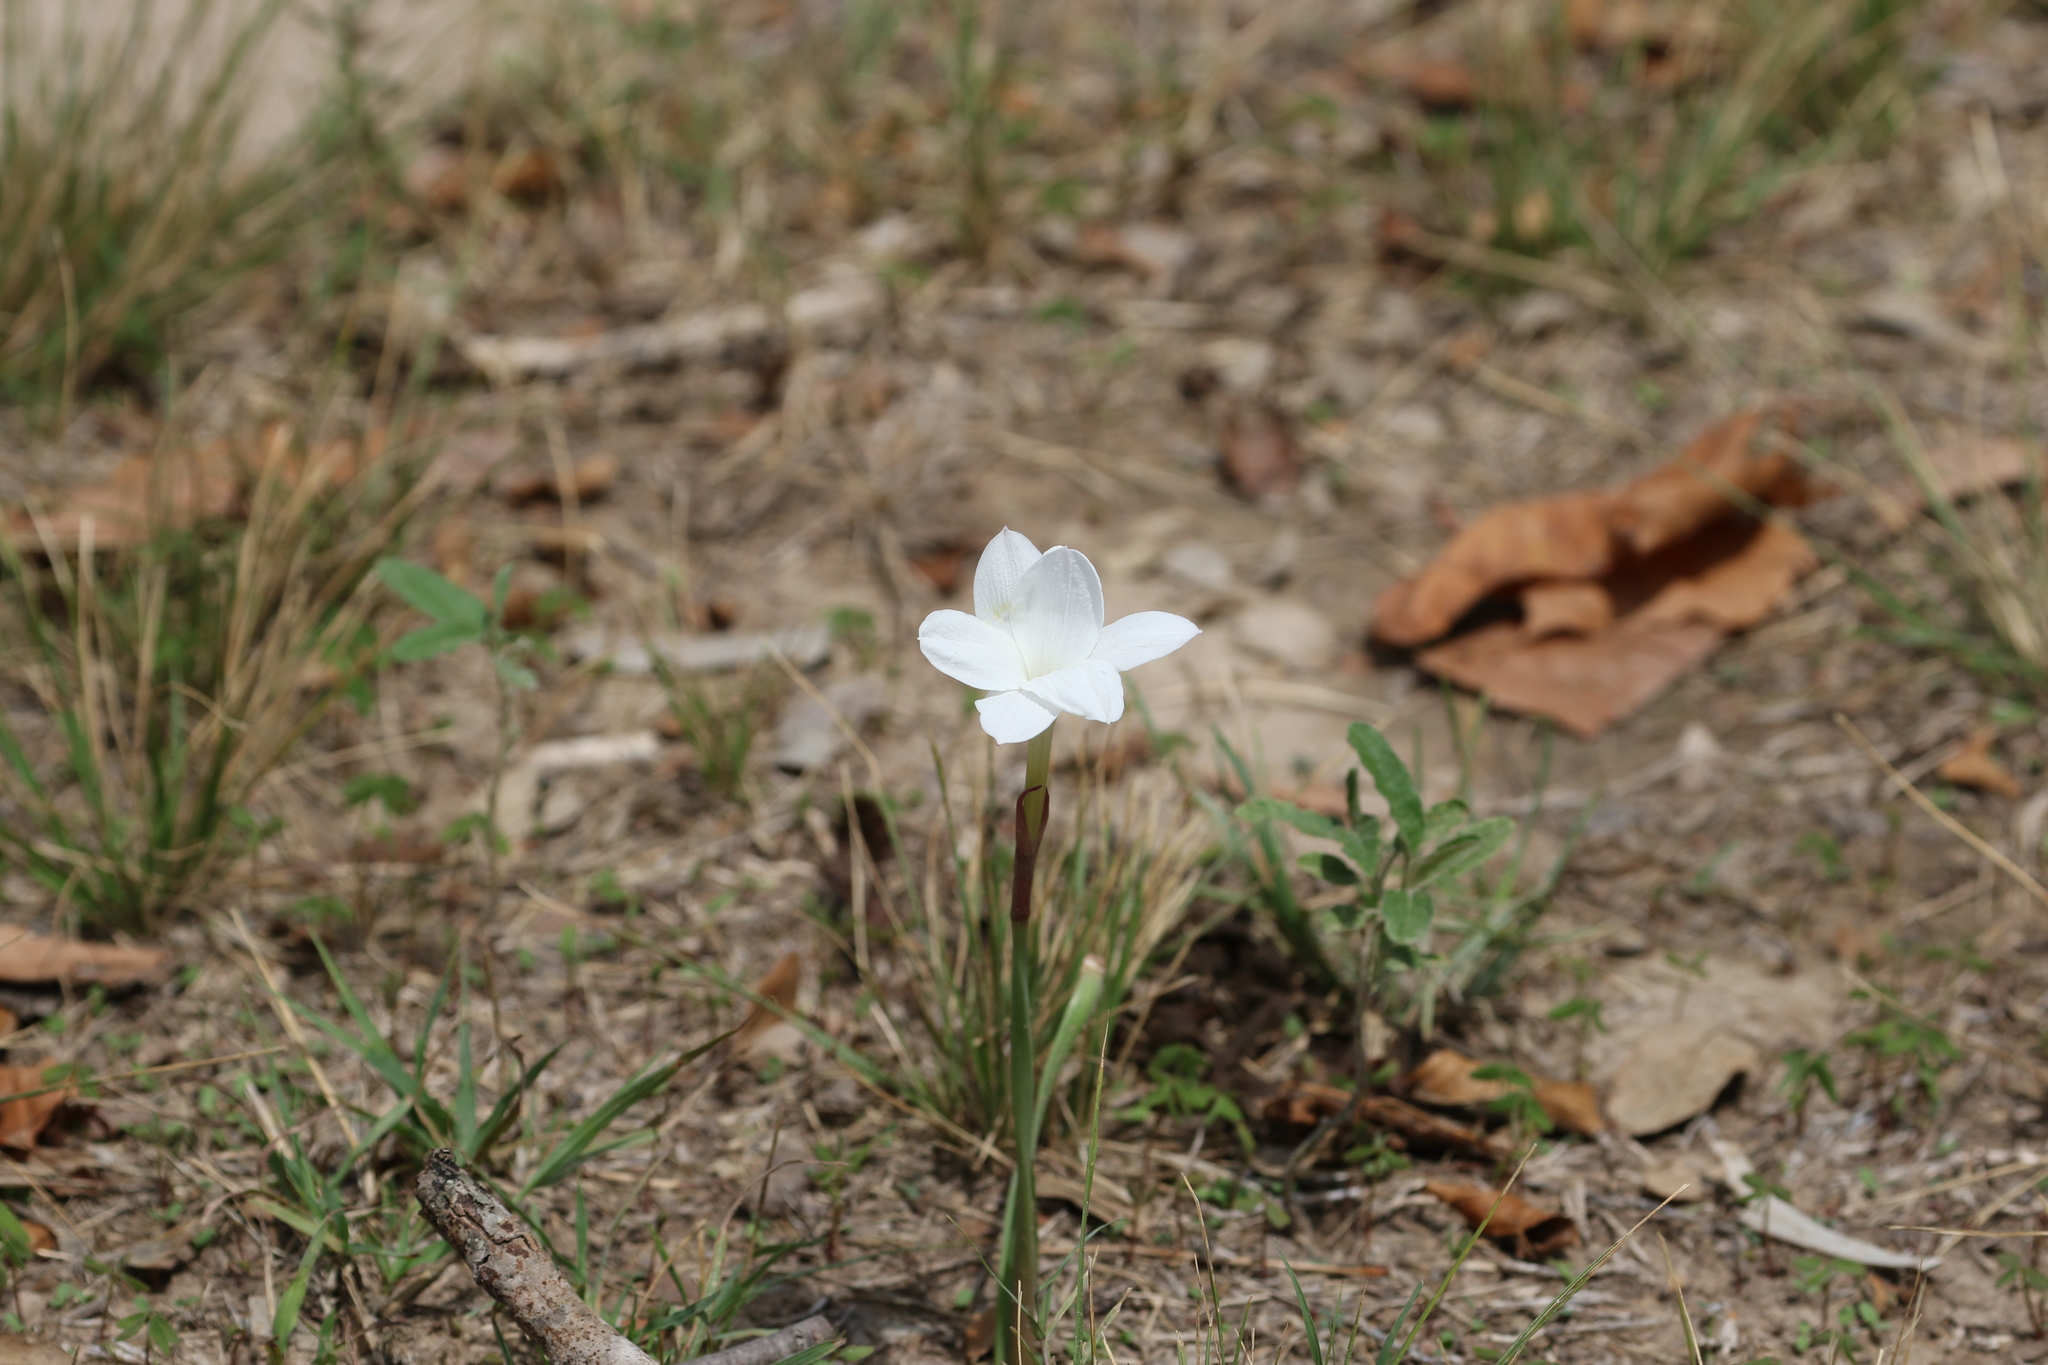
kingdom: Plantae
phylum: Tracheophyta
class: Liliopsida
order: Asparagales
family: Amaryllidaceae
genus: Zephyranthes
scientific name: Zephyranthes drummondii
